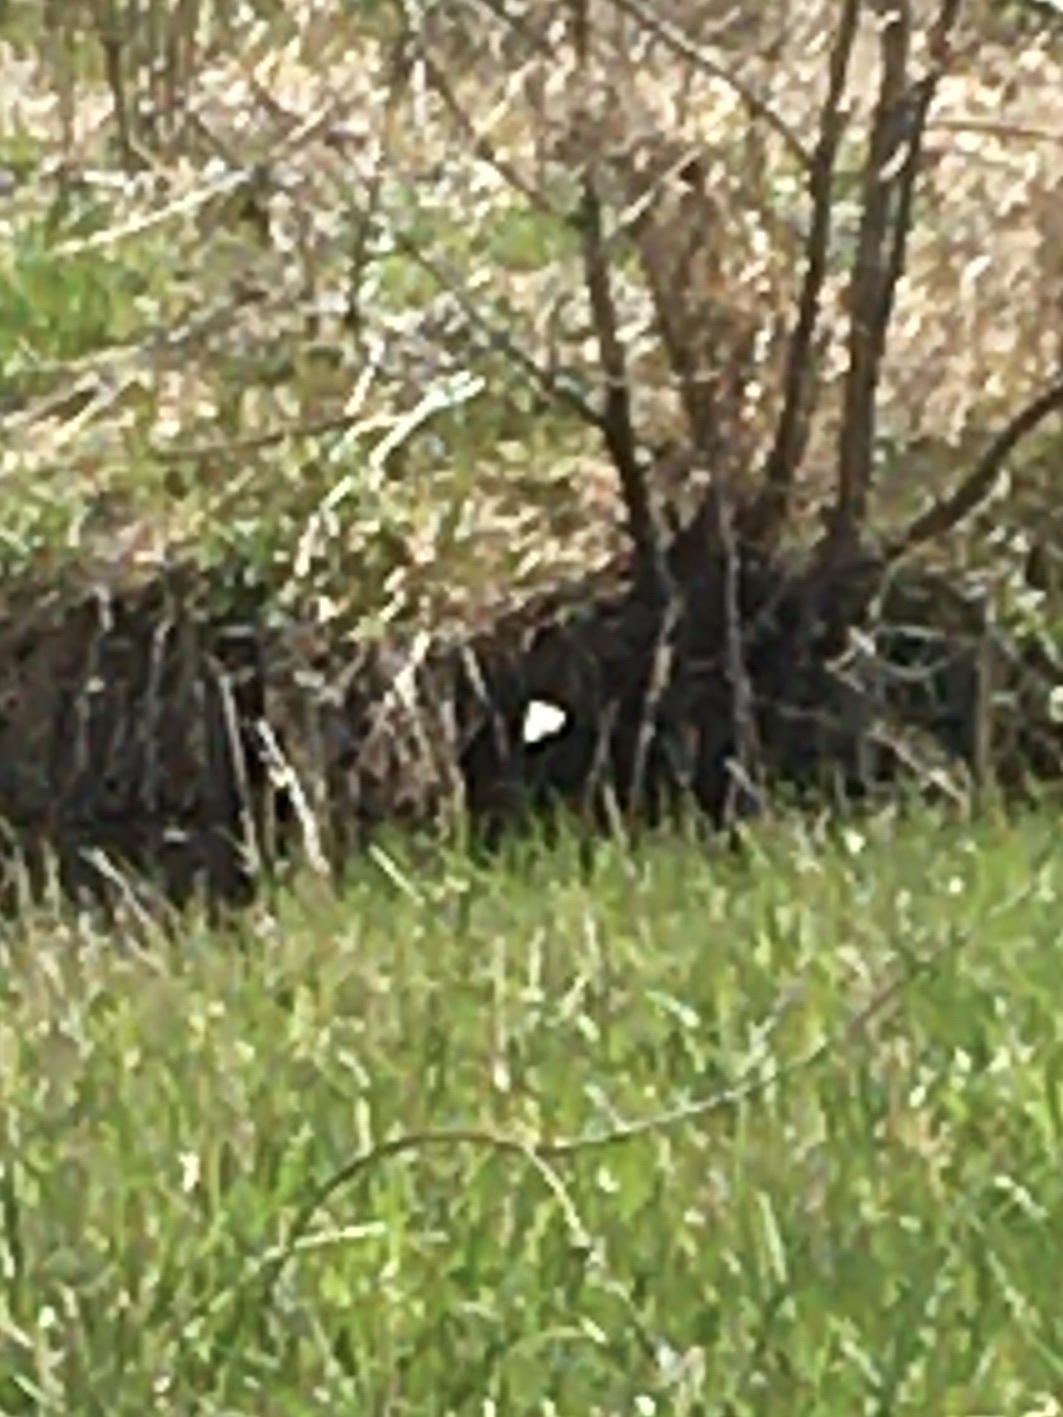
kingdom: Animalia
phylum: Arthropoda
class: Insecta
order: Lepidoptera
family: Pieridae
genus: Pieris
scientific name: Pieris rapae
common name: Small white
